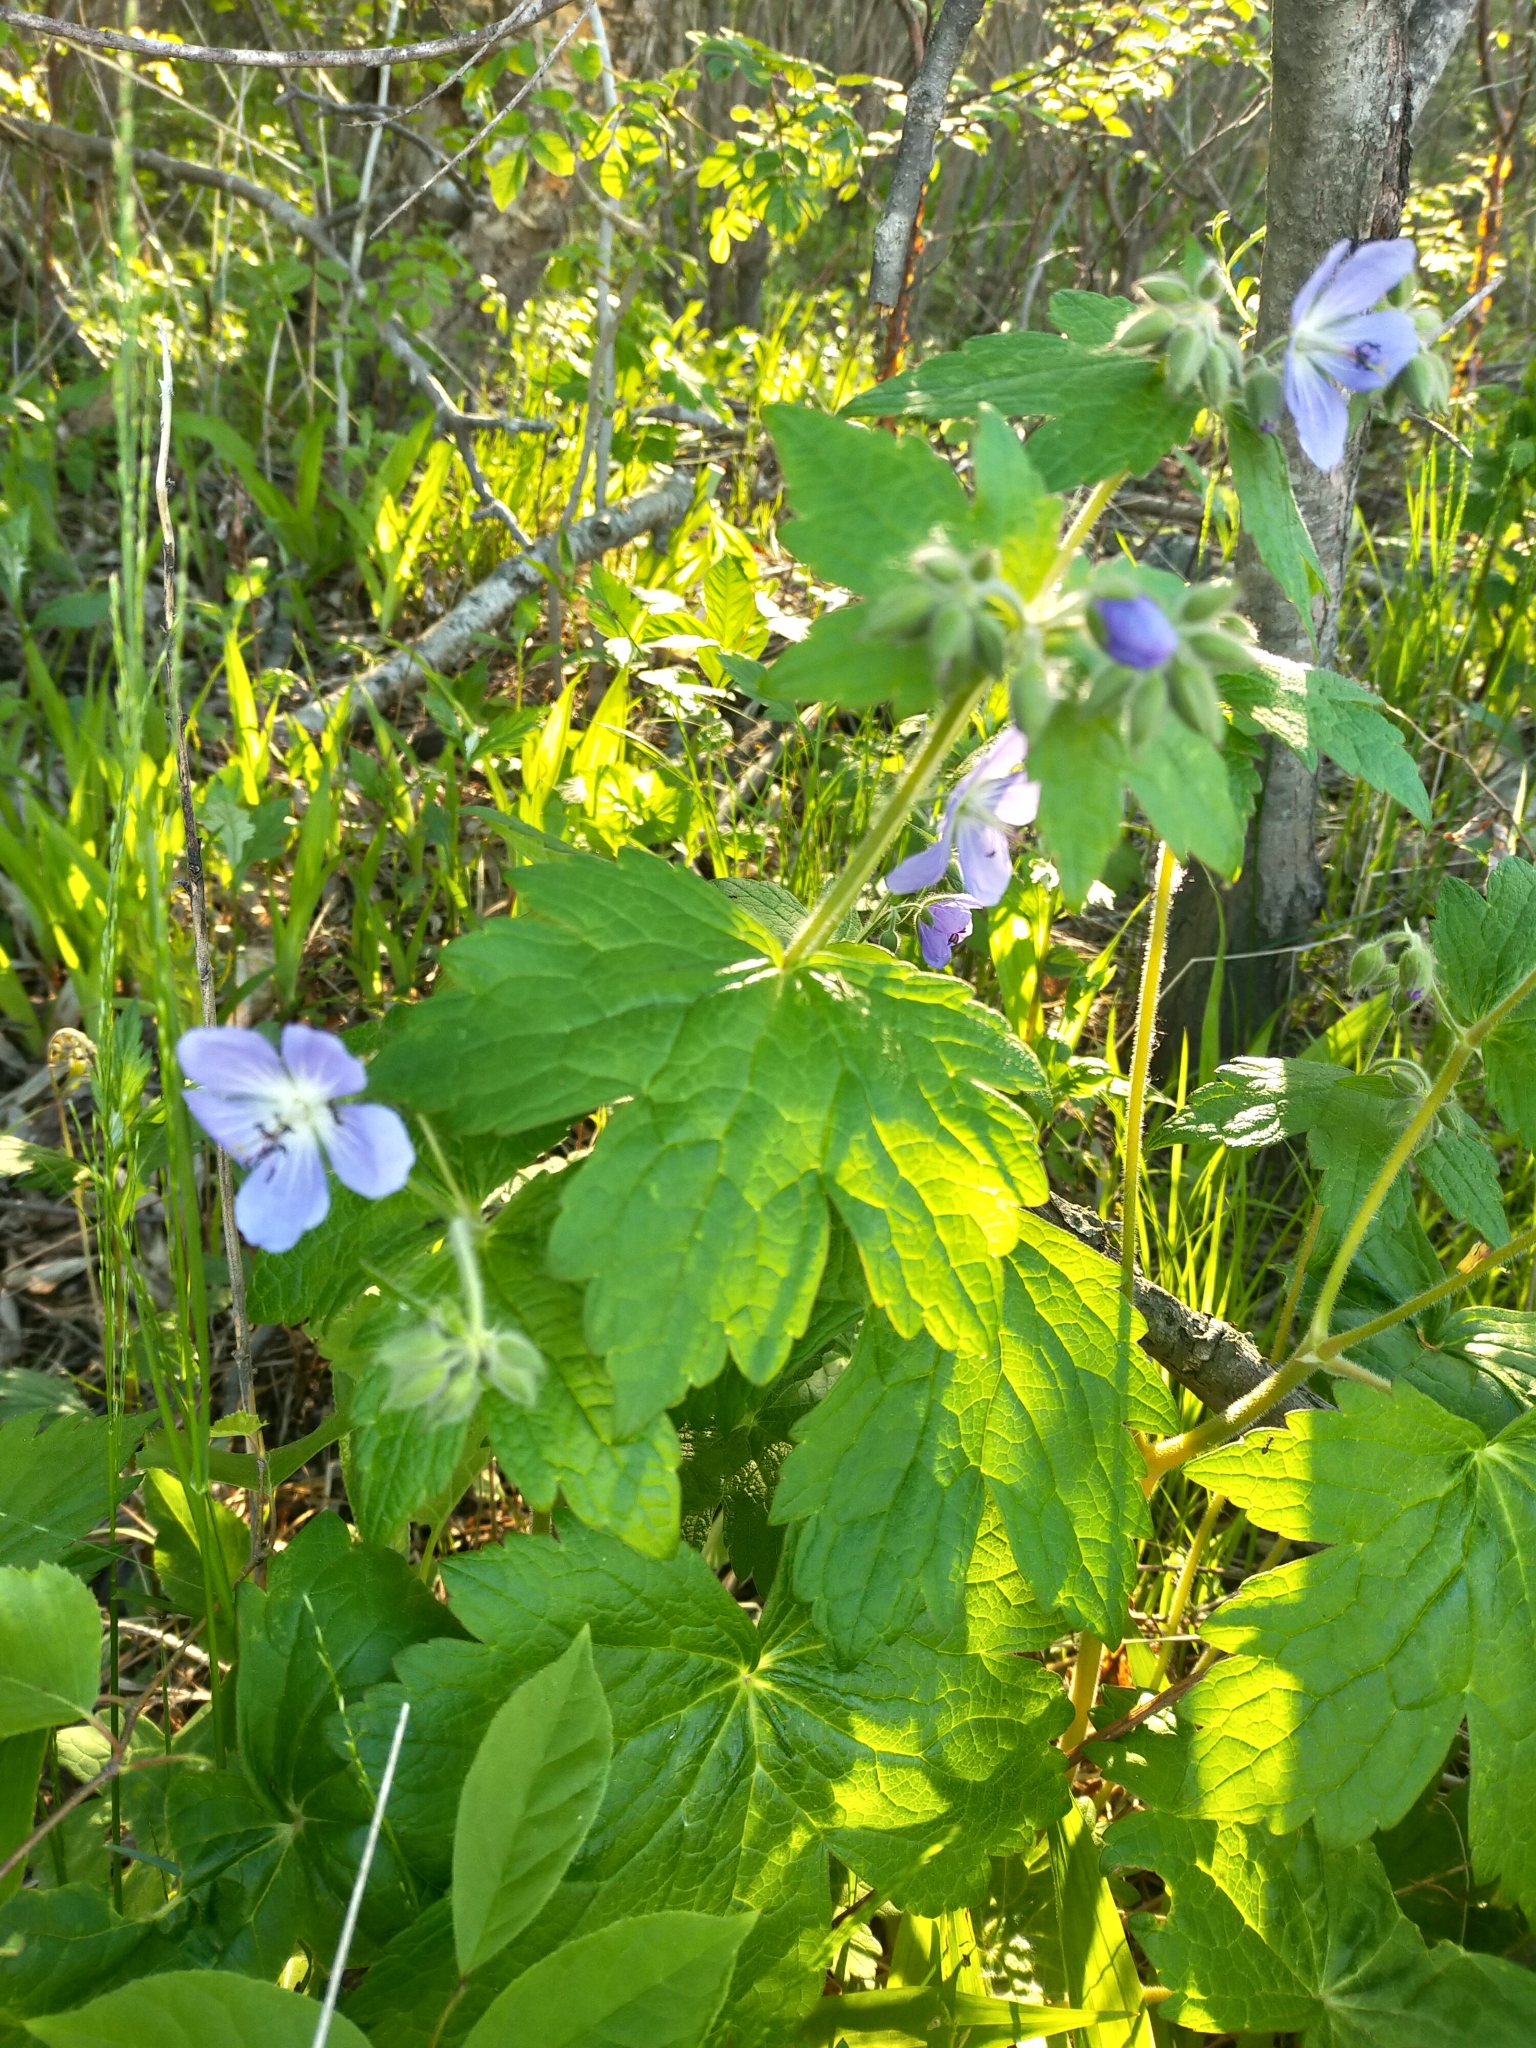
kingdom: Plantae
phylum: Tracheophyta
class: Magnoliopsida
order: Geraniales
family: Geraniaceae
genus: Geranium
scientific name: Geranium platyanthum
